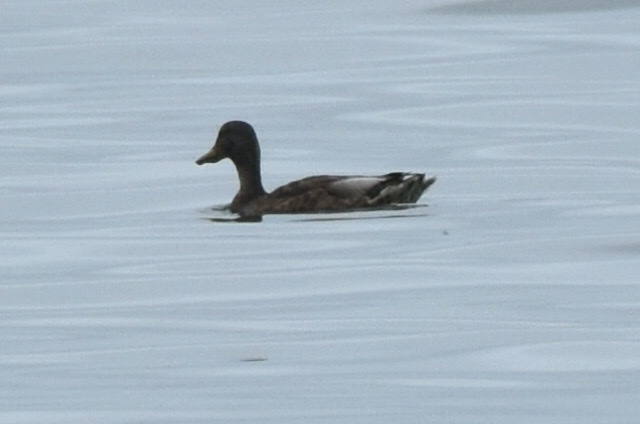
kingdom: Animalia
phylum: Chordata
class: Aves
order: Anseriformes
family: Anatidae
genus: Anas
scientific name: Anas platyrhynchos
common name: Mallard
